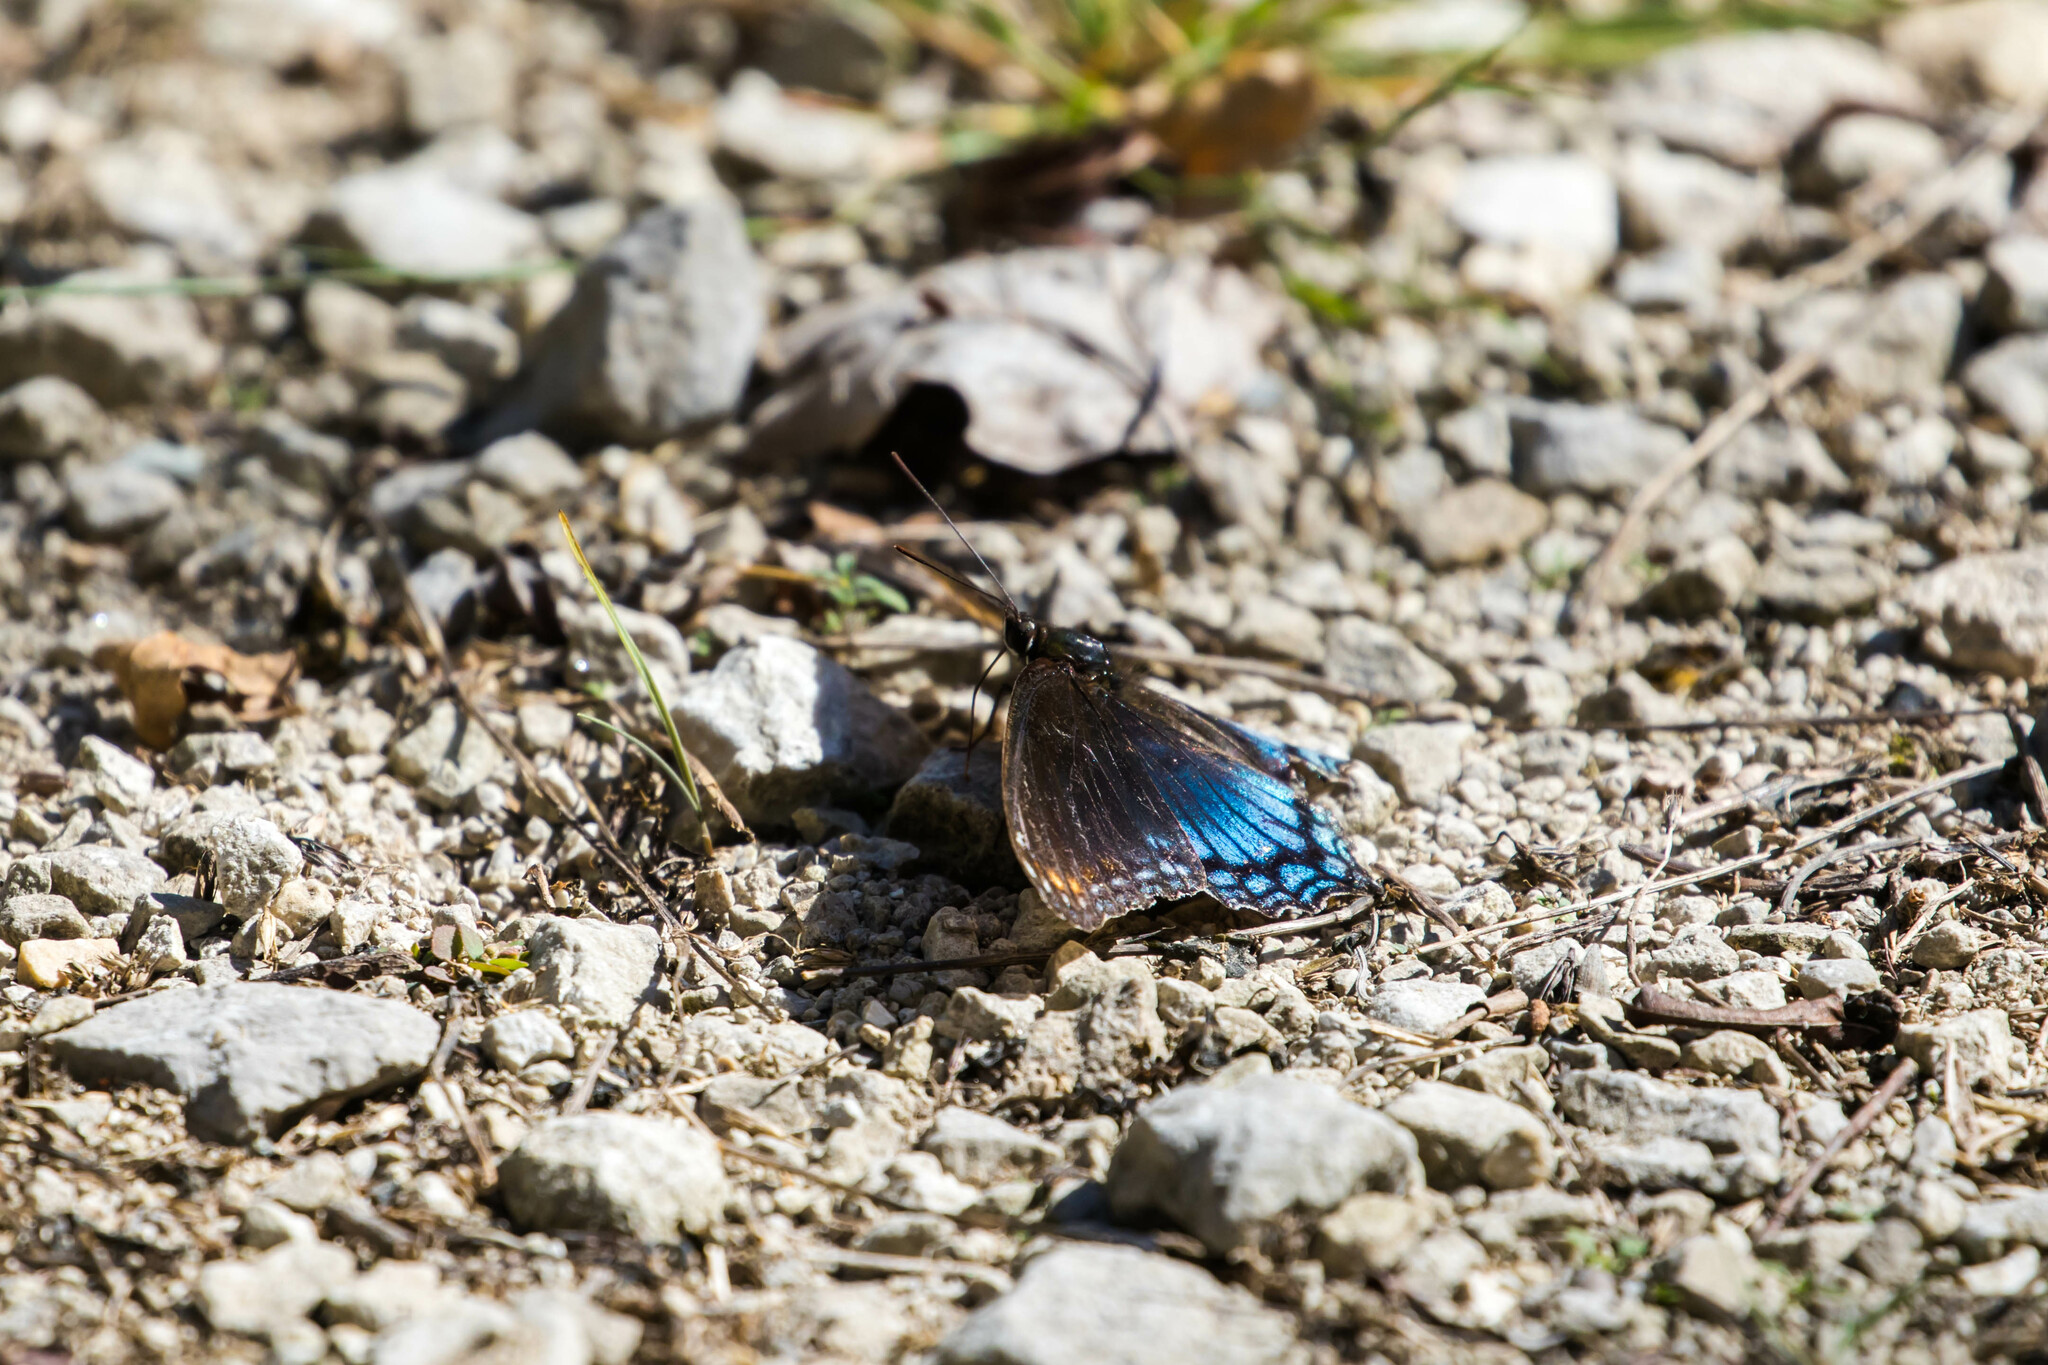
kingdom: Animalia
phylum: Arthropoda
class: Insecta
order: Lepidoptera
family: Nymphalidae
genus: Limenitis
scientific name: Limenitis astyanax
